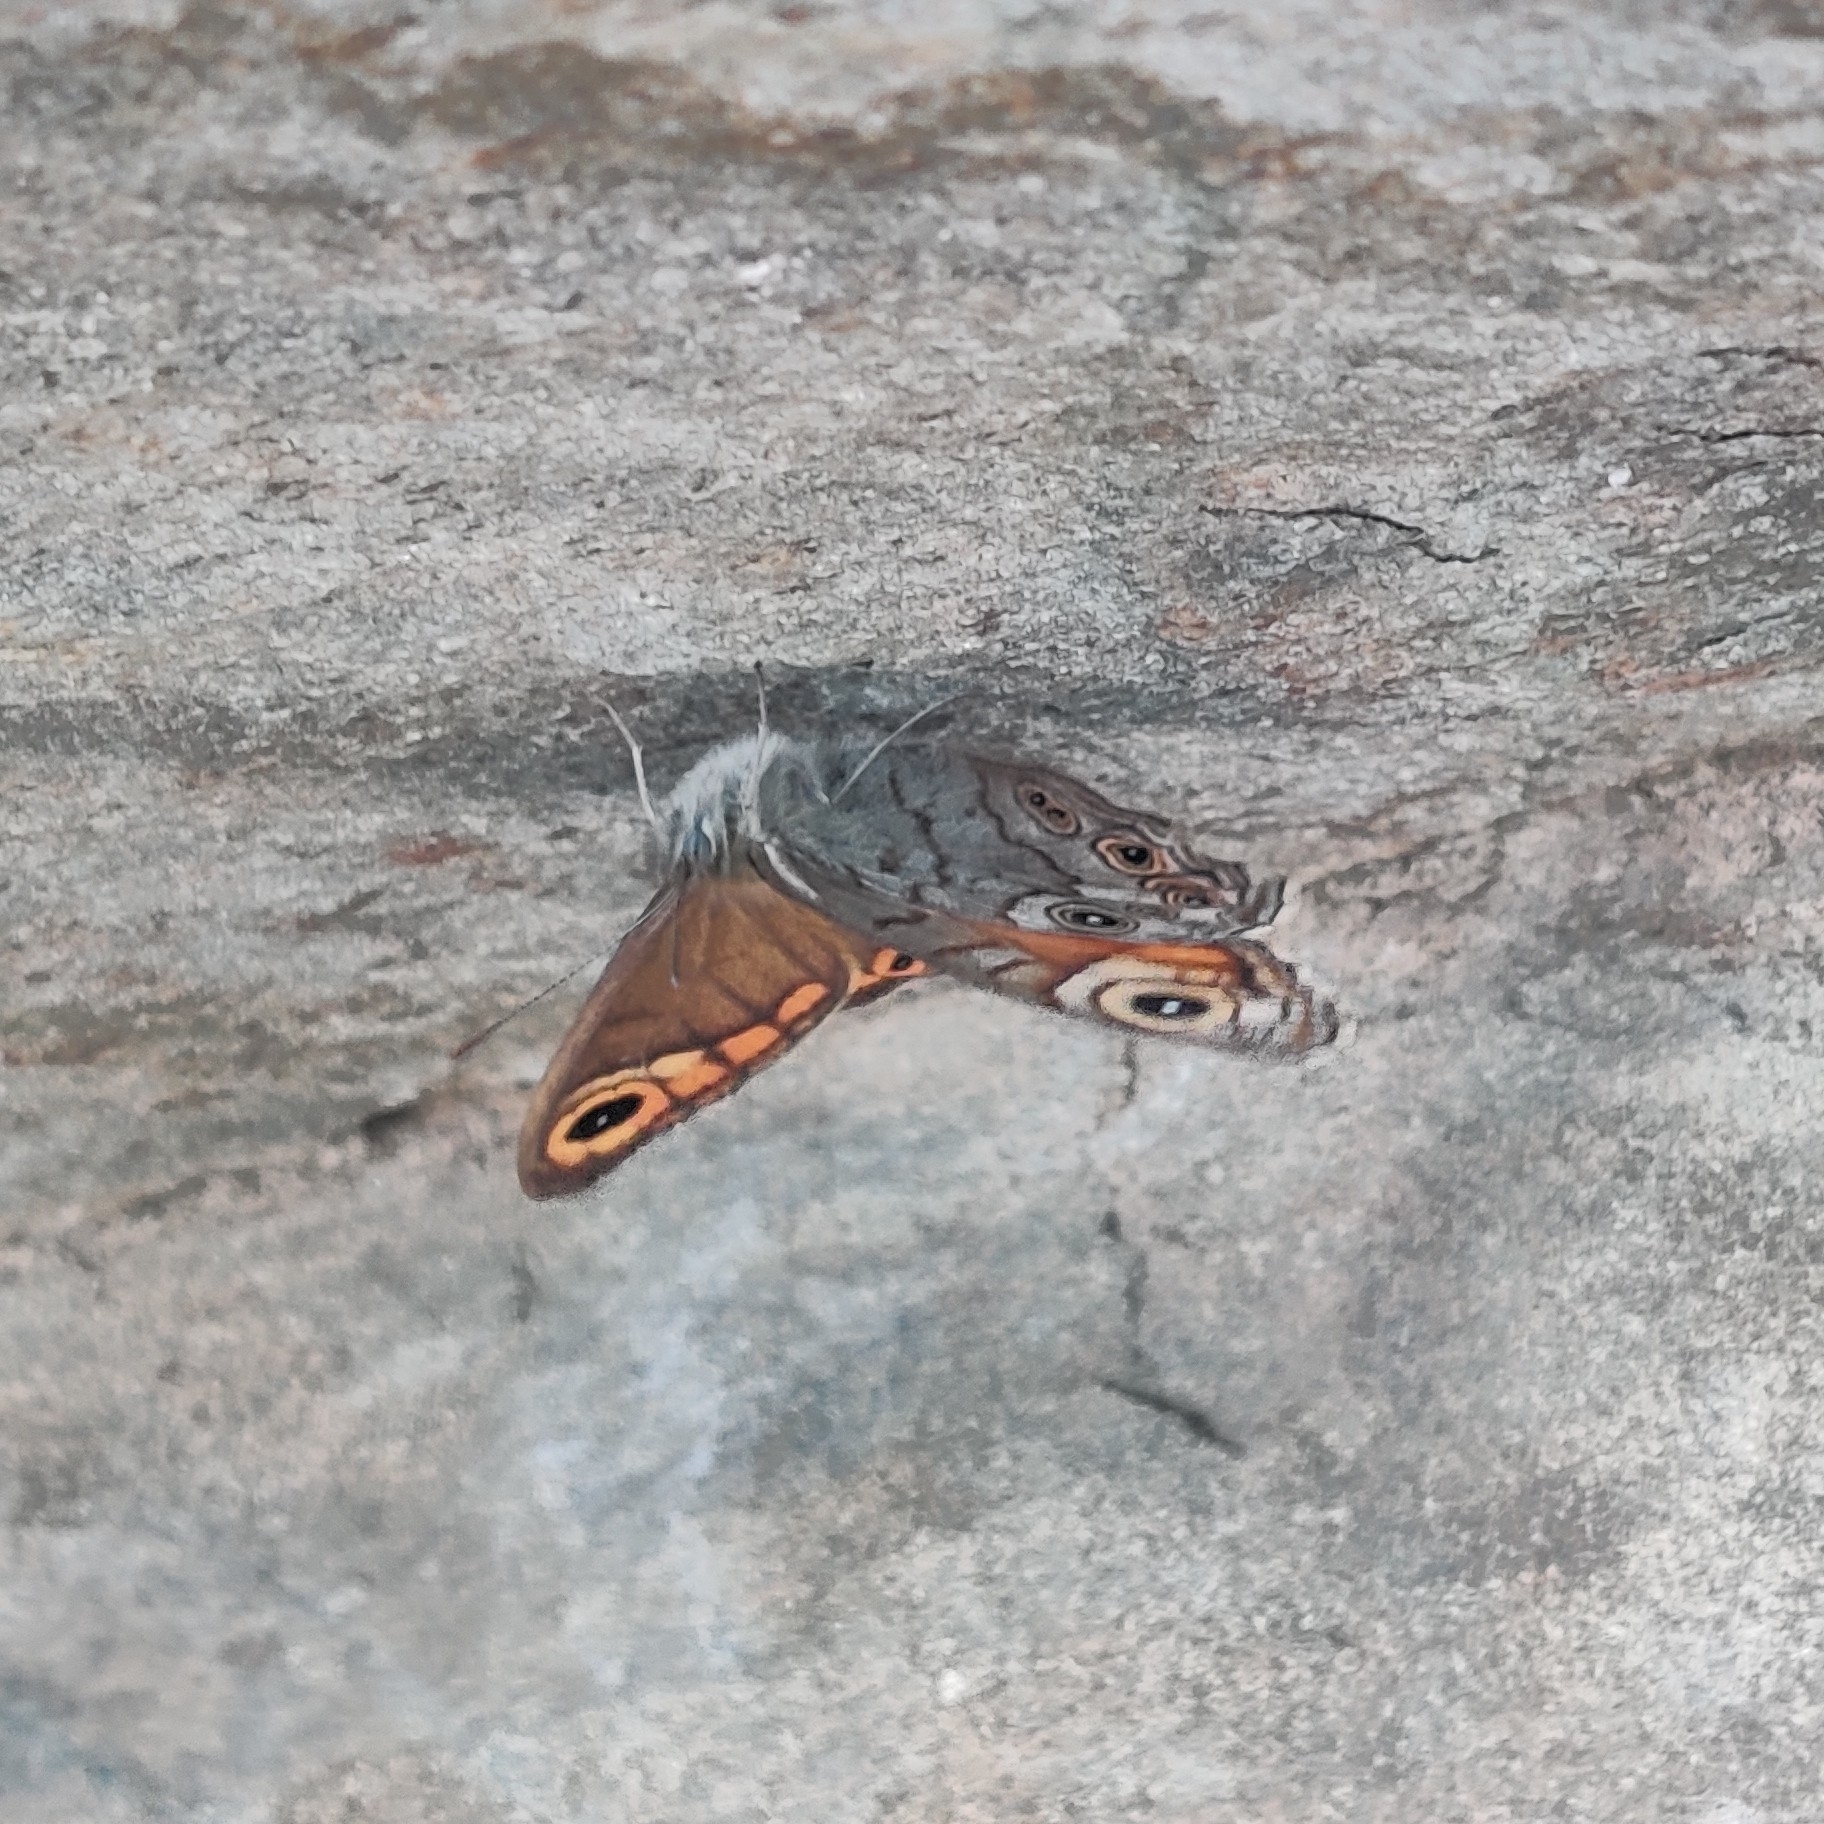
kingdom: Animalia
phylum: Arthropoda
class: Insecta
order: Lepidoptera
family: Nymphalidae
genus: Pararge
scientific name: Pararge Lasiommata schakra
